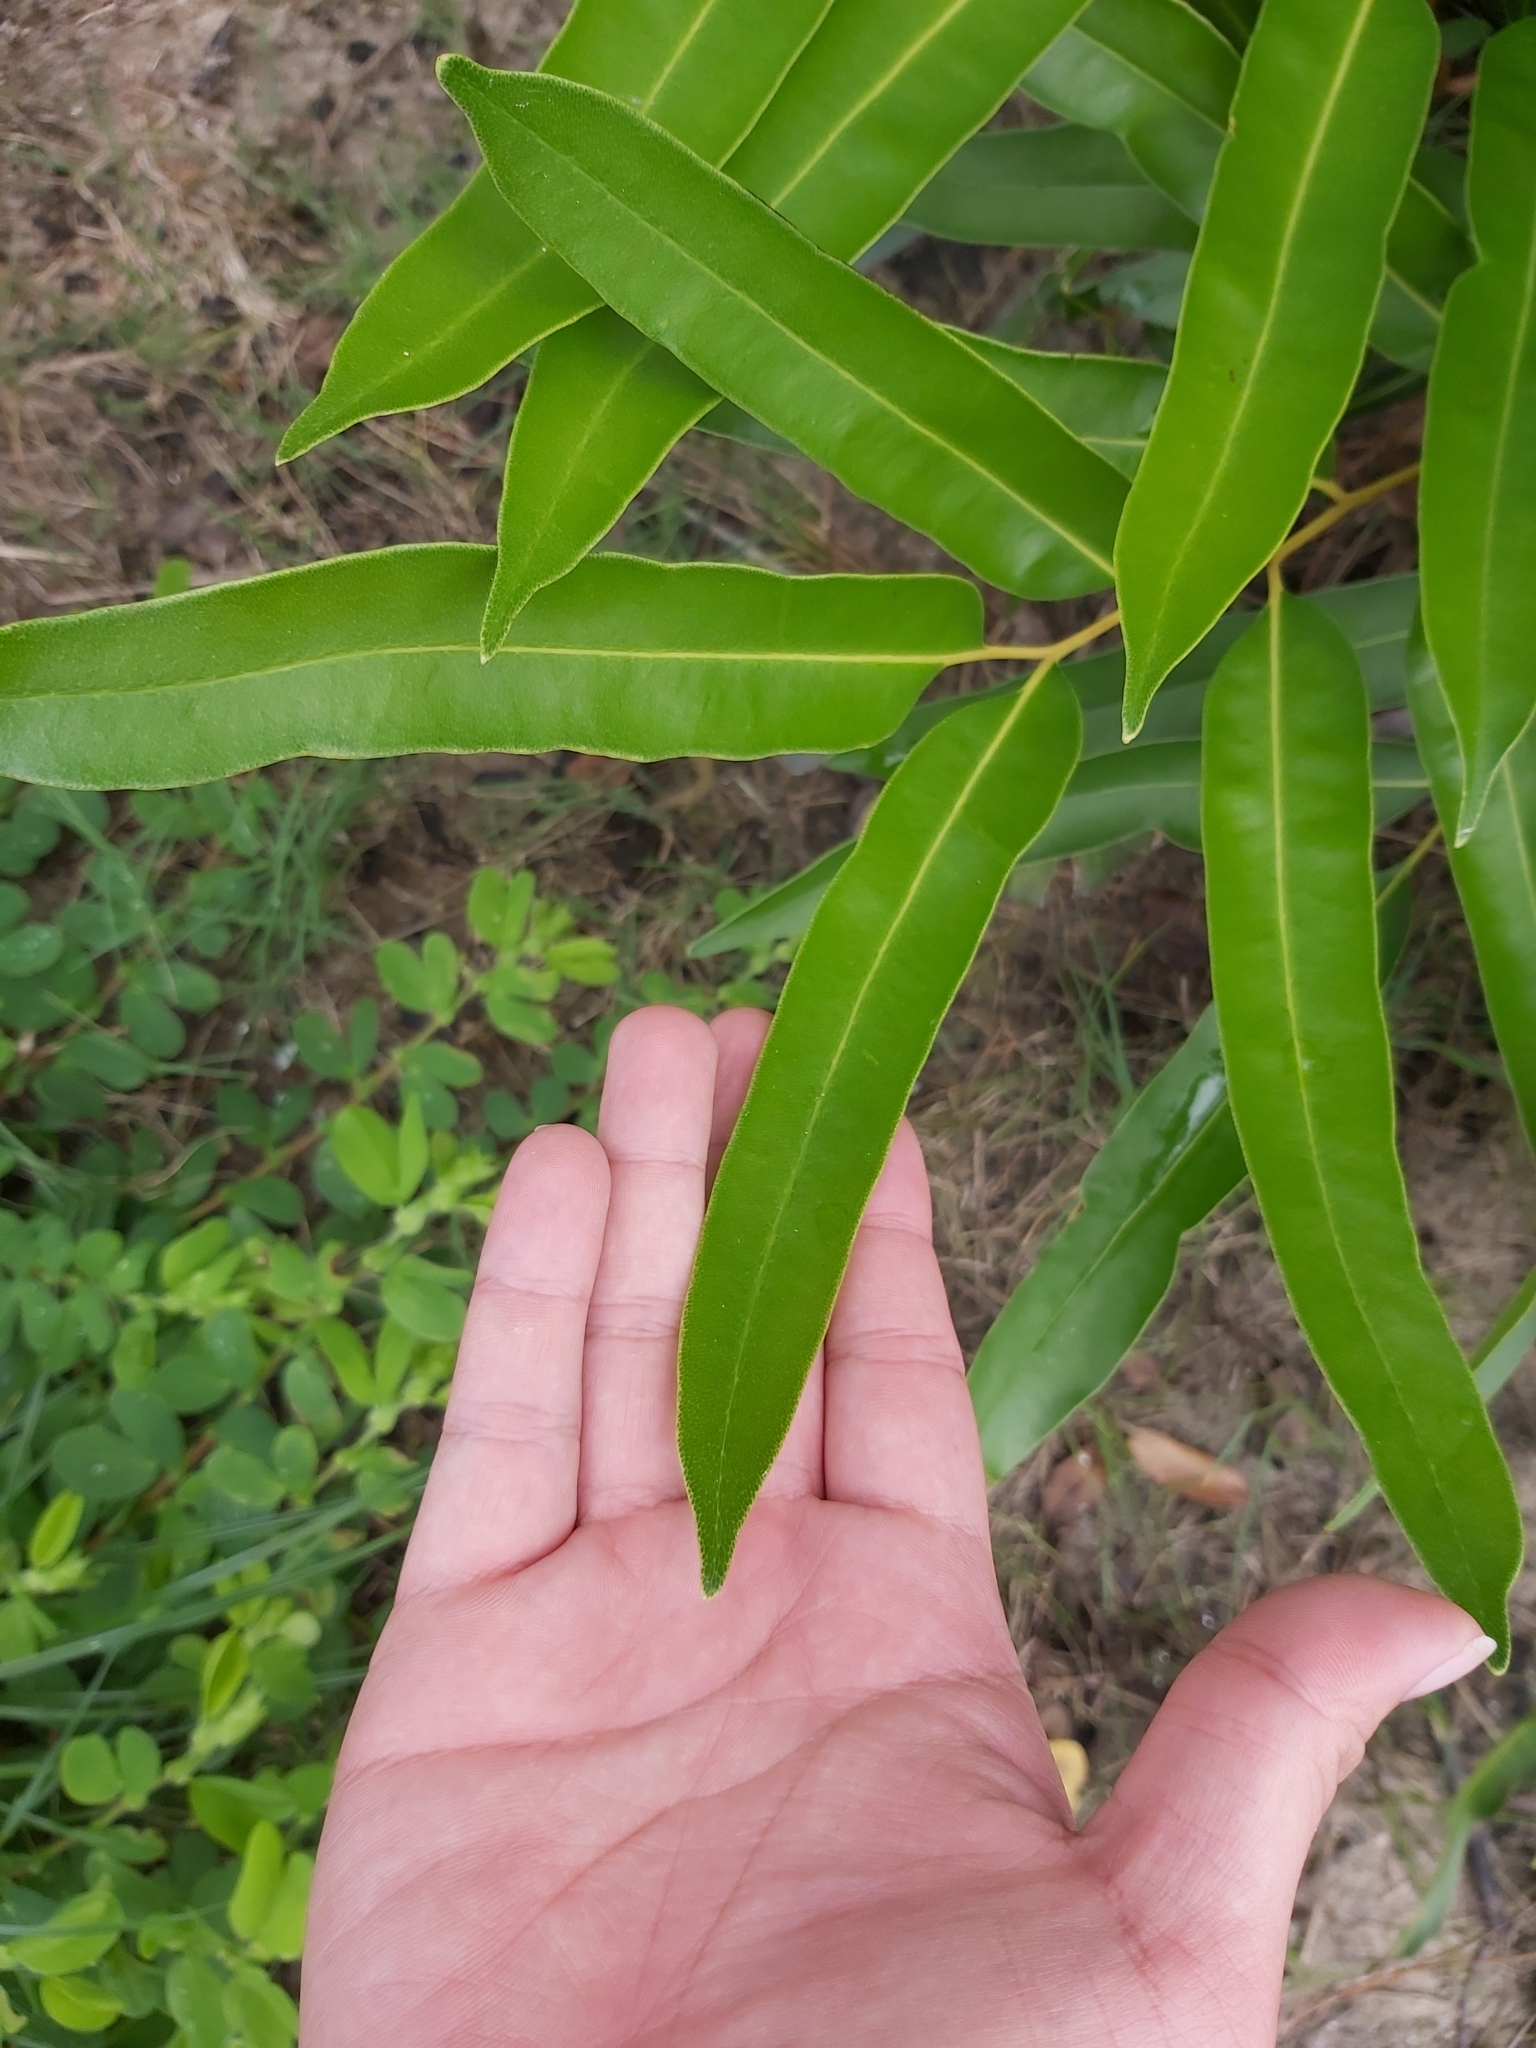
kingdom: Plantae
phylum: Tracheophyta
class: Polypodiopsida
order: Polypodiales
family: Pteridaceae
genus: Acrostichum
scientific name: Acrostichum speciosum
